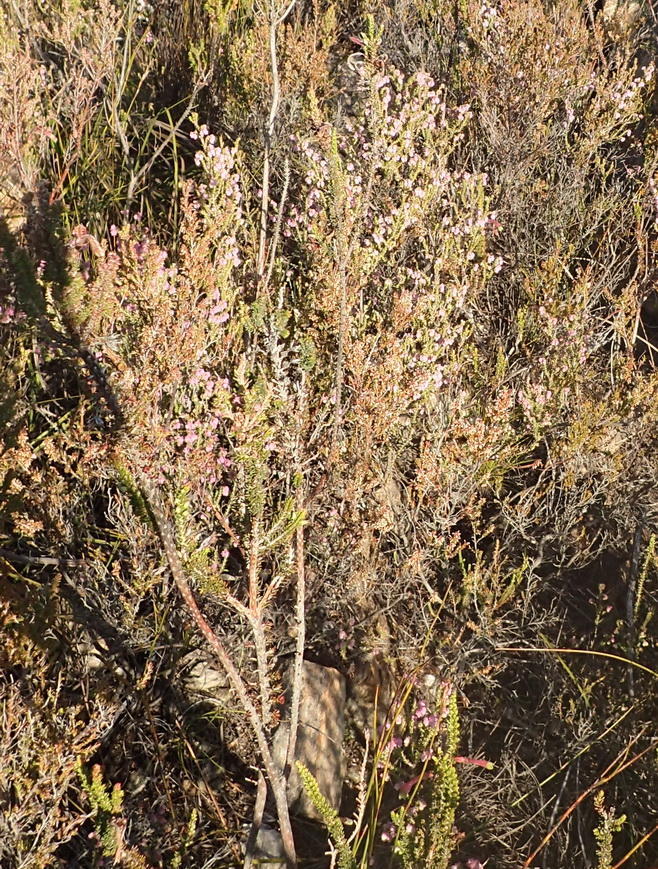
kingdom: Plantae
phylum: Tracheophyta
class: Magnoliopsida
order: Ericales
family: Ericaceae
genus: Erica
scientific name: Erica fimbriata
